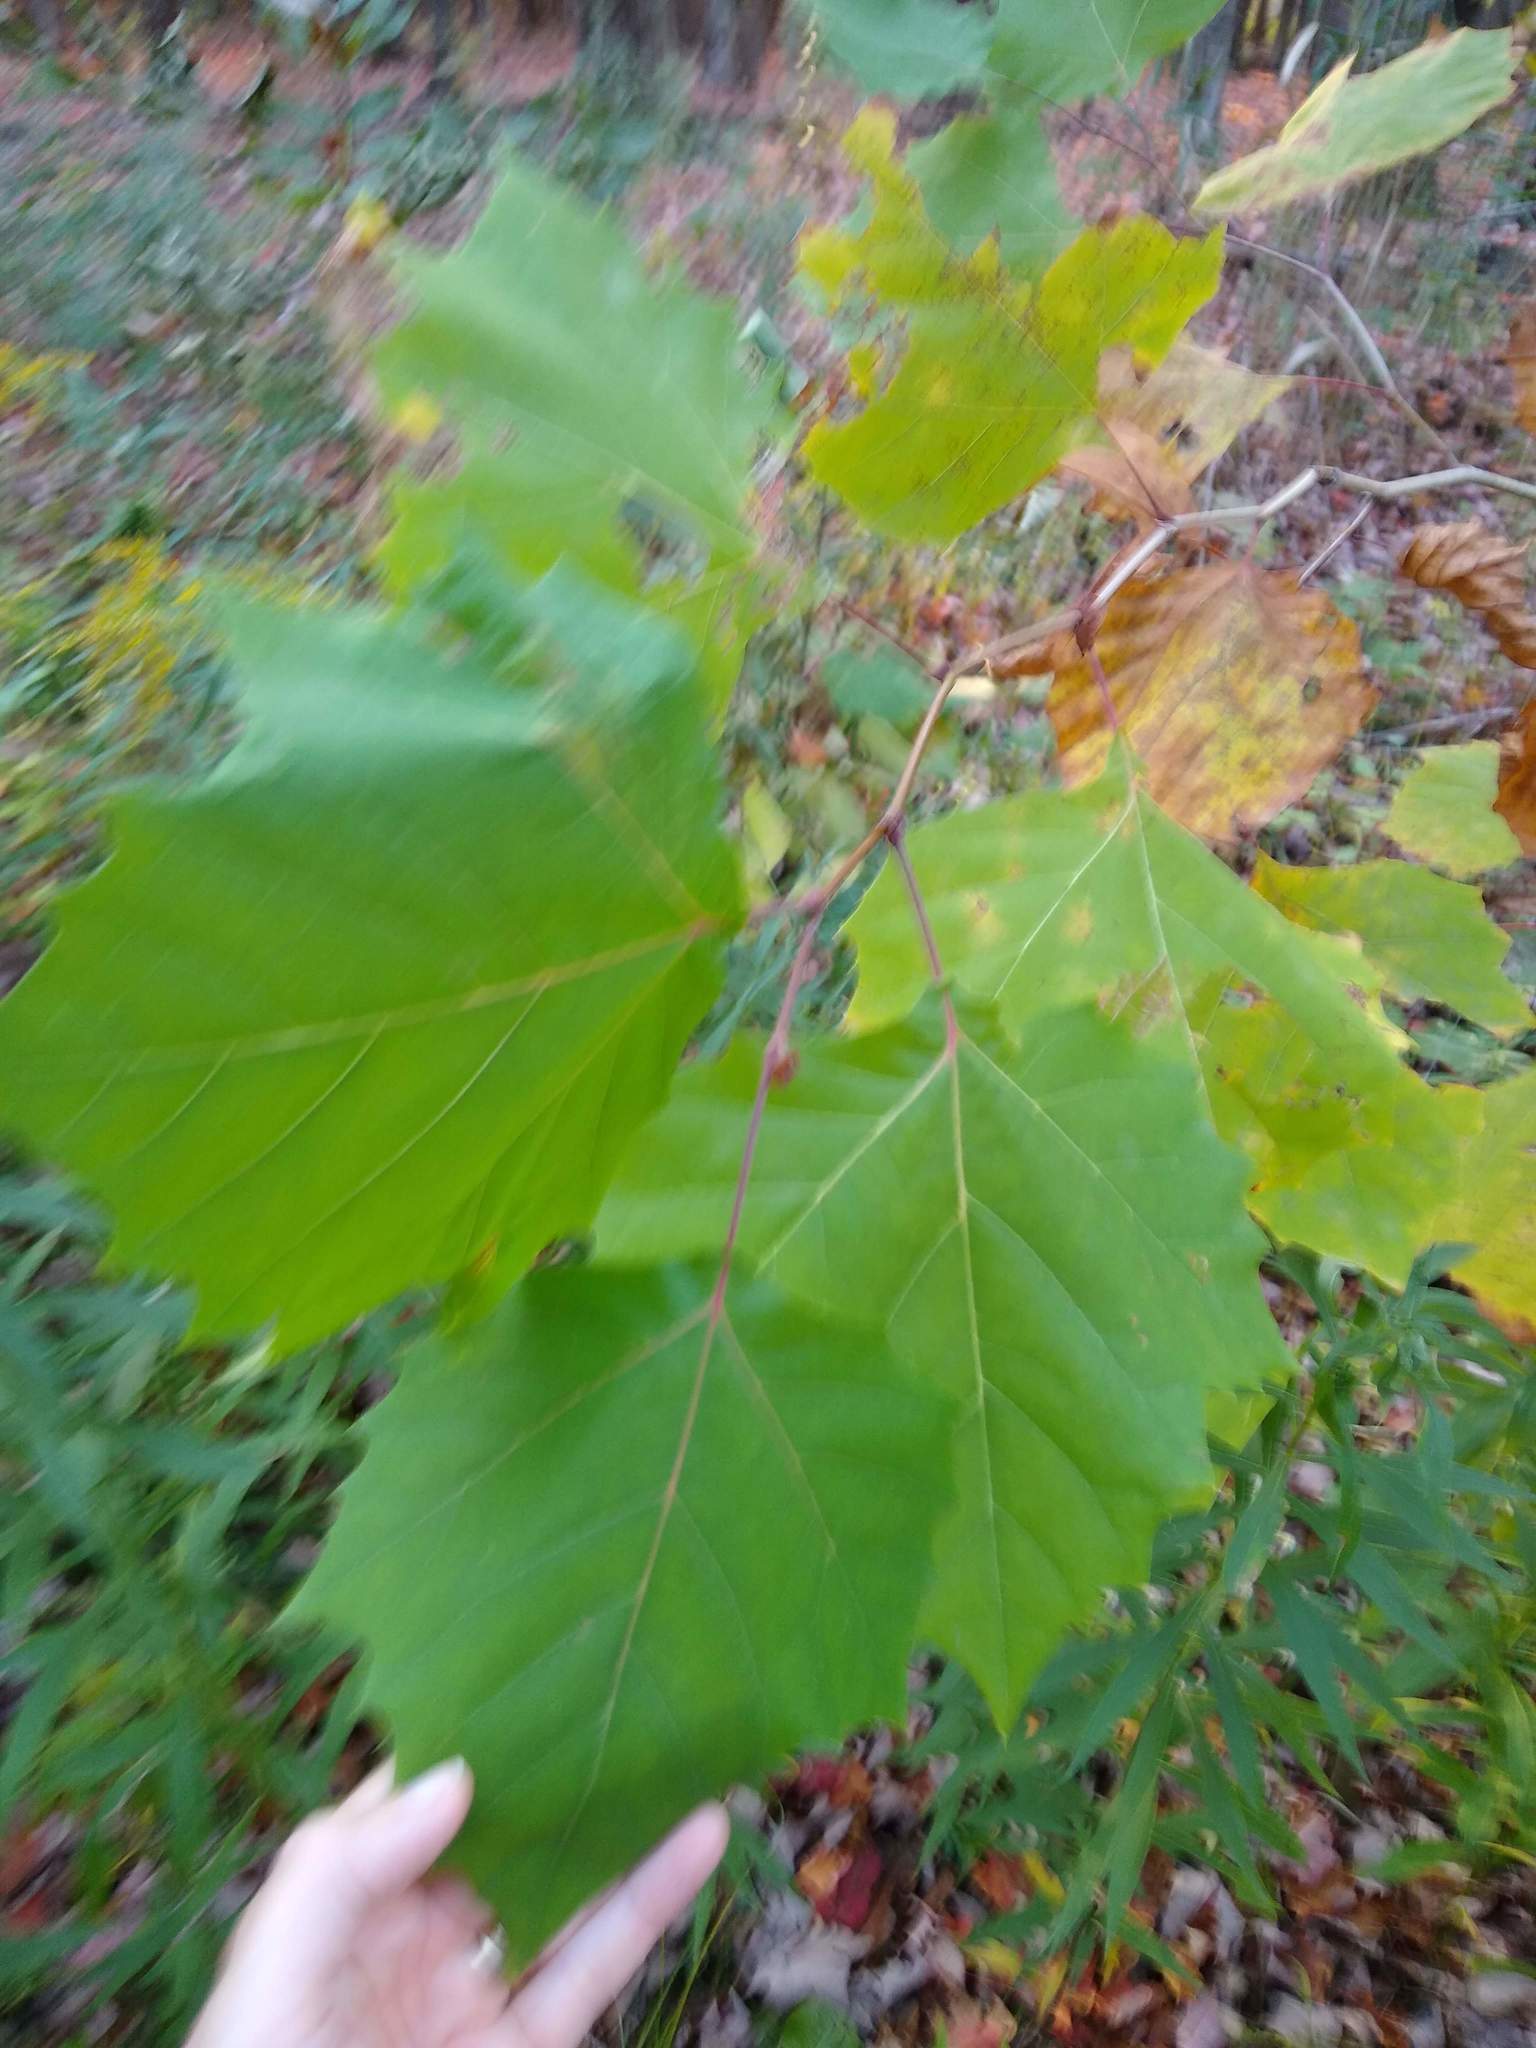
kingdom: Plantae
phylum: Tracheophyta
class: Magnoliopsida
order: Proteales
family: Platanaceae
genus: Platanus
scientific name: Platanus occidentalis
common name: American sycamore
